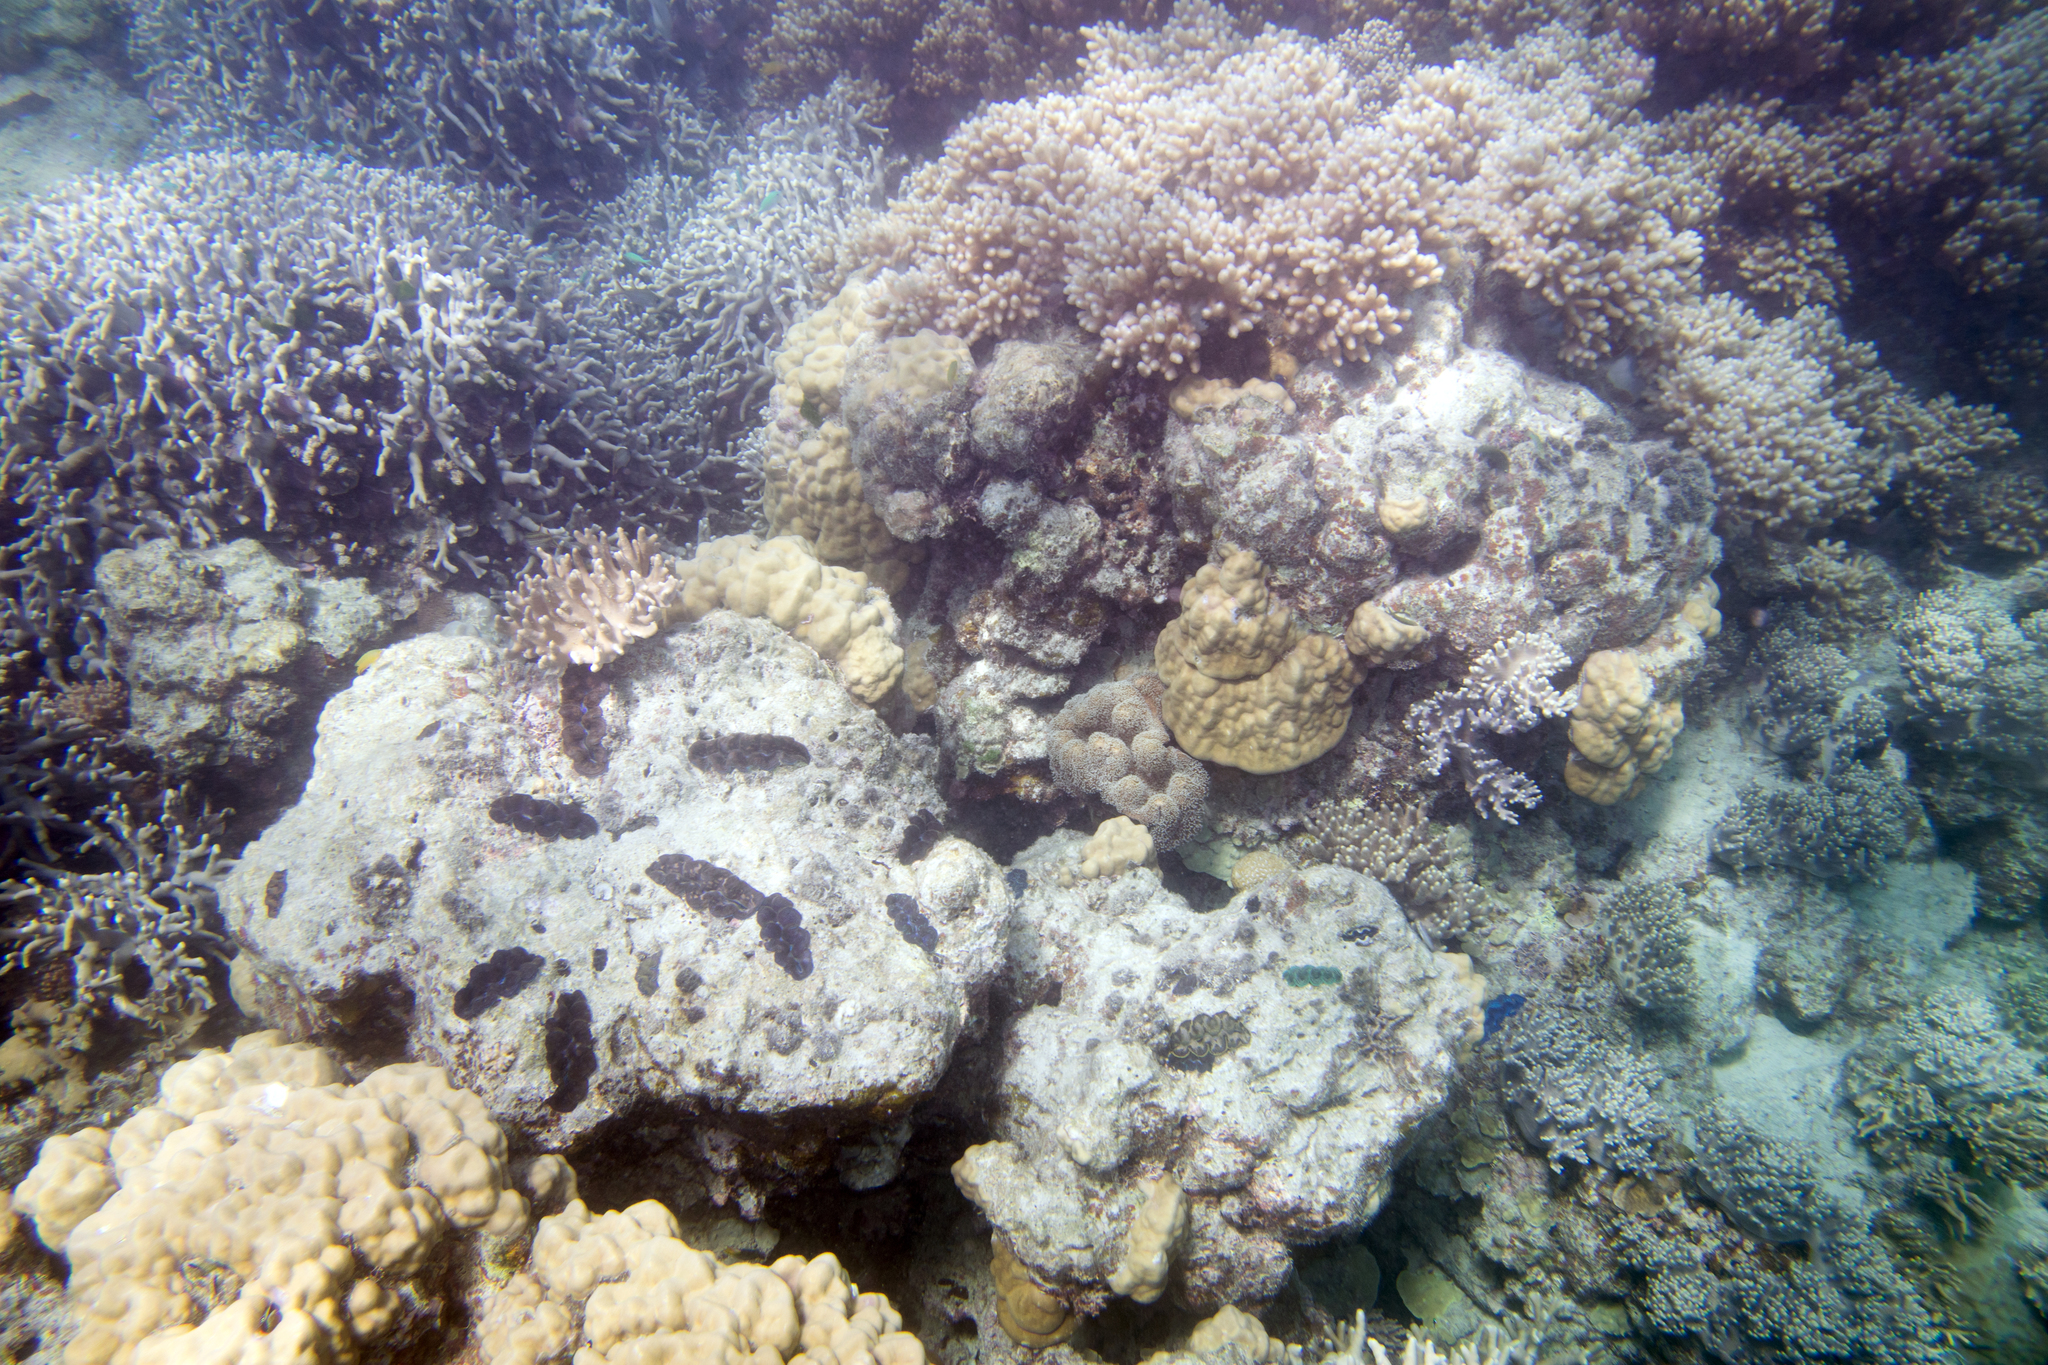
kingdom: Animalia
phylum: Cnidaria
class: Anthozoa
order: Scleractinia
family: Poritidae
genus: Porites
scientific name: Porites cylindrica
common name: Hump coral
